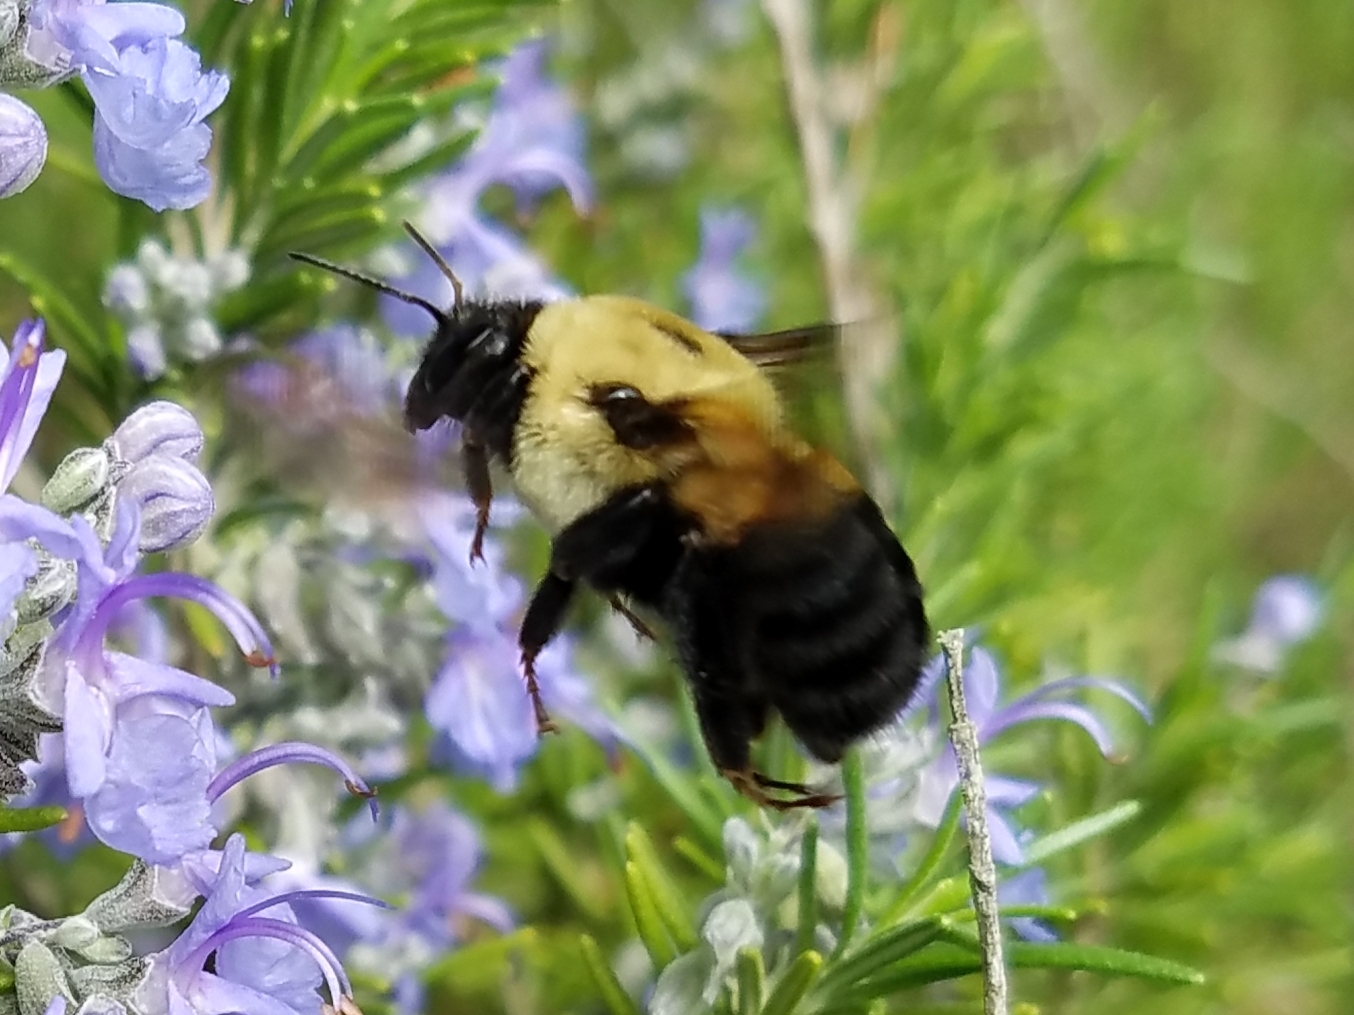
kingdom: Animalia
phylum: Arthropoda
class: Insecta
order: Hymenoptera
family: Apidae
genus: Bombus
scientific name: Bombus griseocollis
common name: Brown-belted bumble bee
